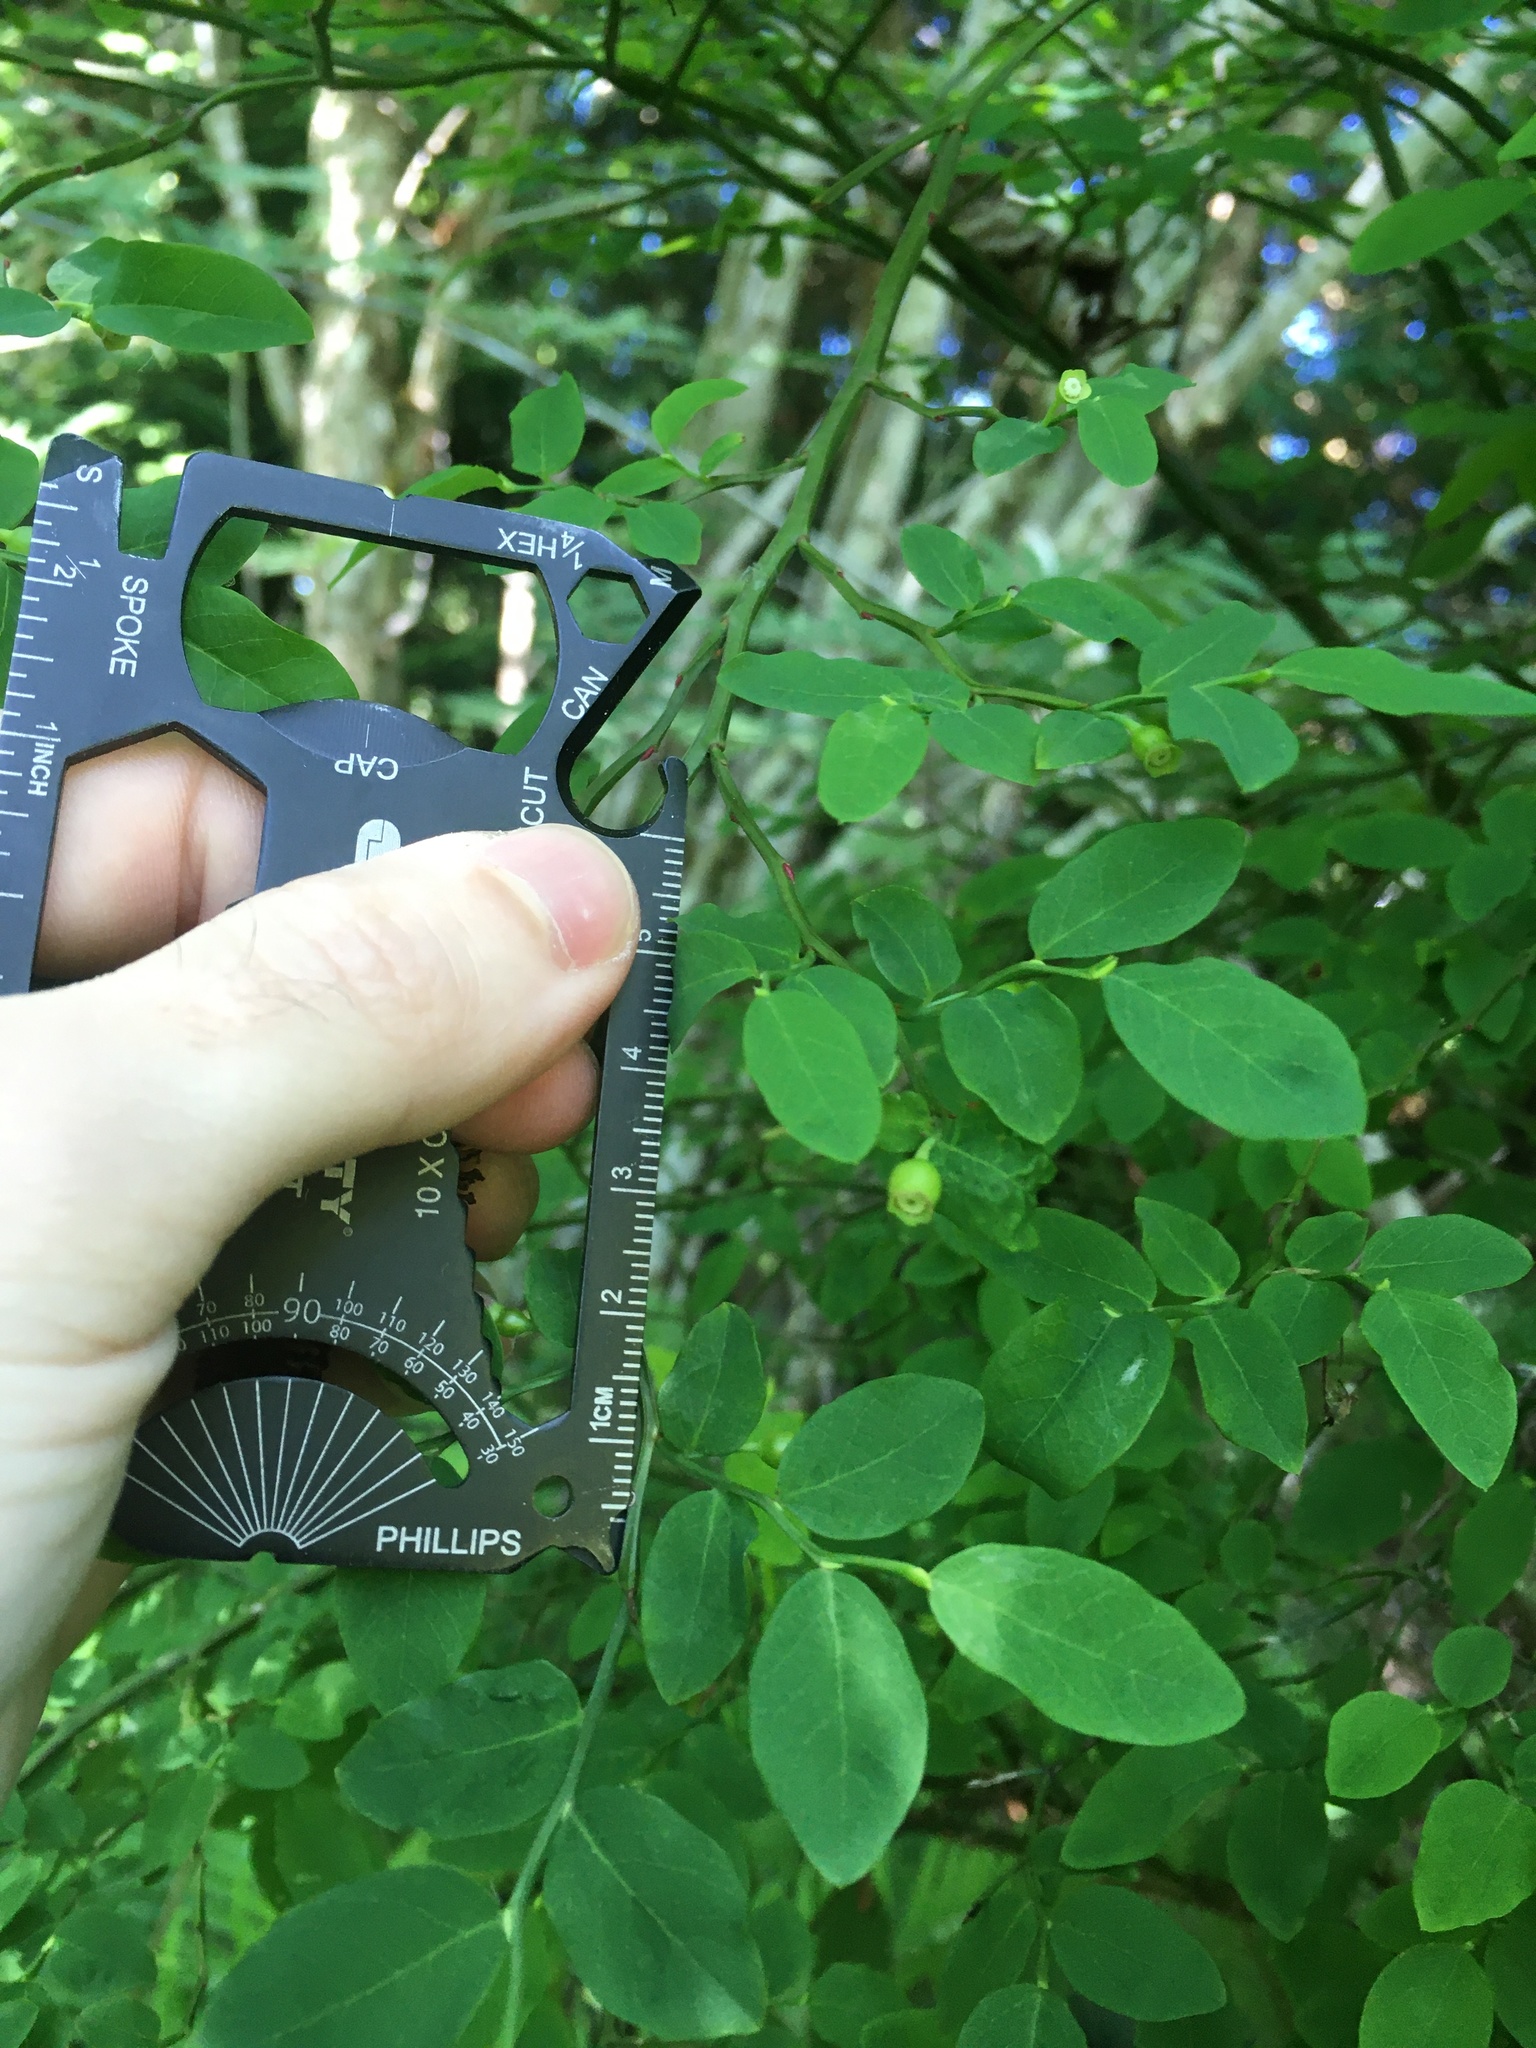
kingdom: Plantae
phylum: Tracheophyta
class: Magnoliopsida
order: Ericales
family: Ericaceae
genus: Vaccinium
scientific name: Vaccinium parvifolium
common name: Red-huckleberry
